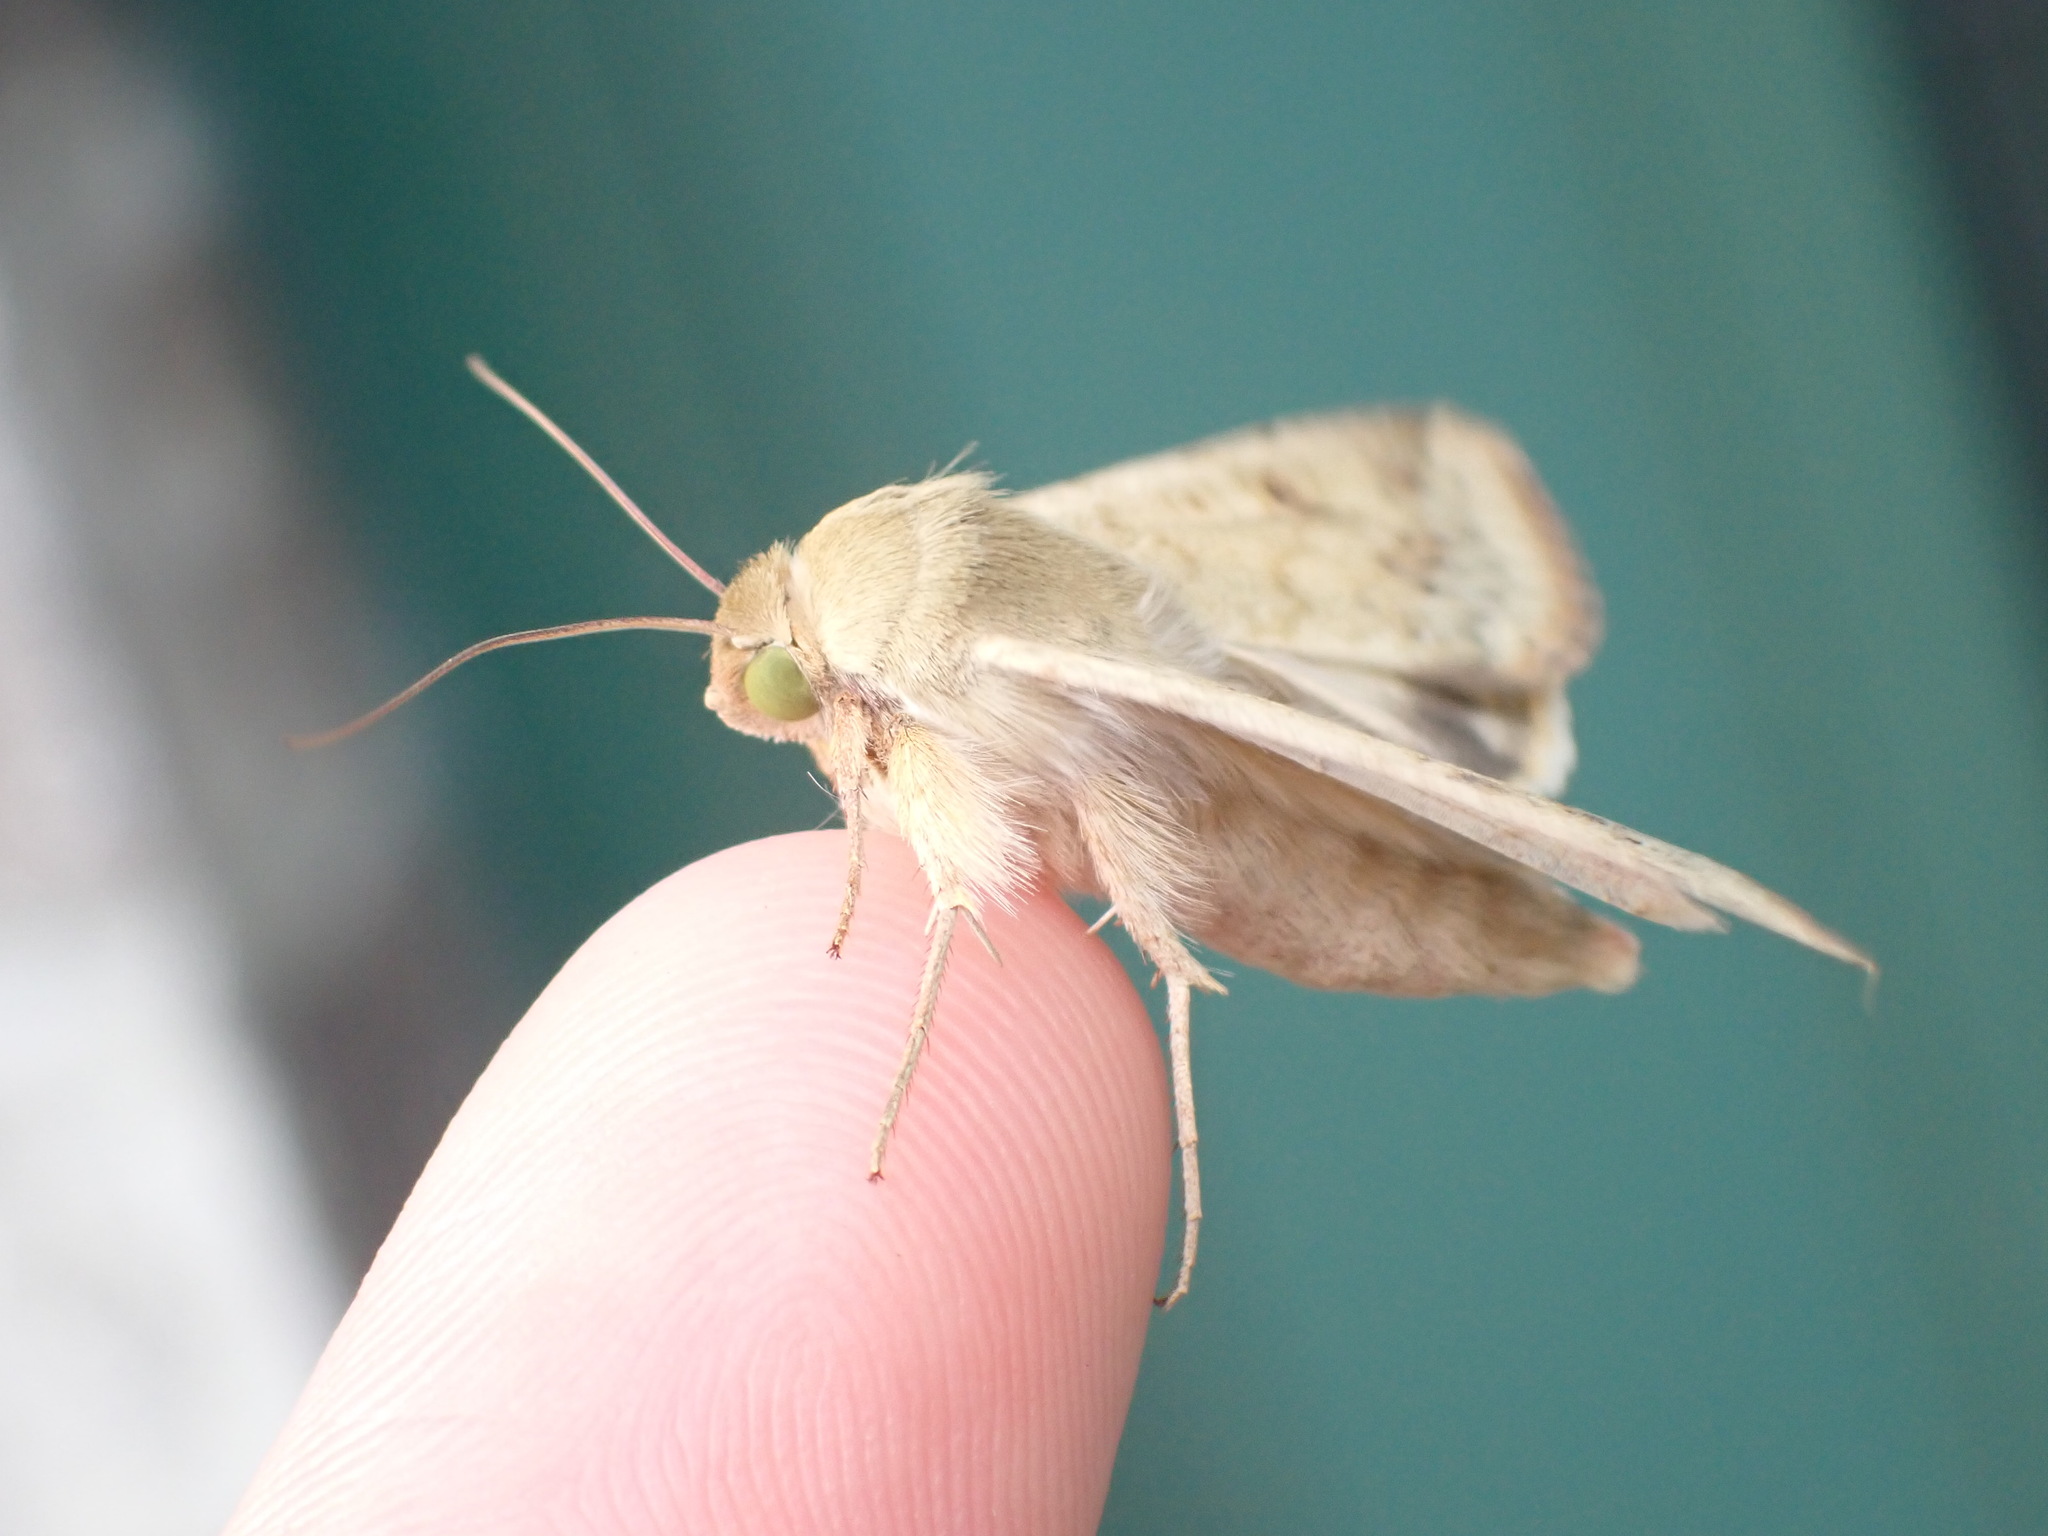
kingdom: Animalia
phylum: Arthropoda
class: Insecta
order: Lepidoptera
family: Noctuidae
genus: Helicoverpa
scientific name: Helicoverpa zea
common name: Bollworm
